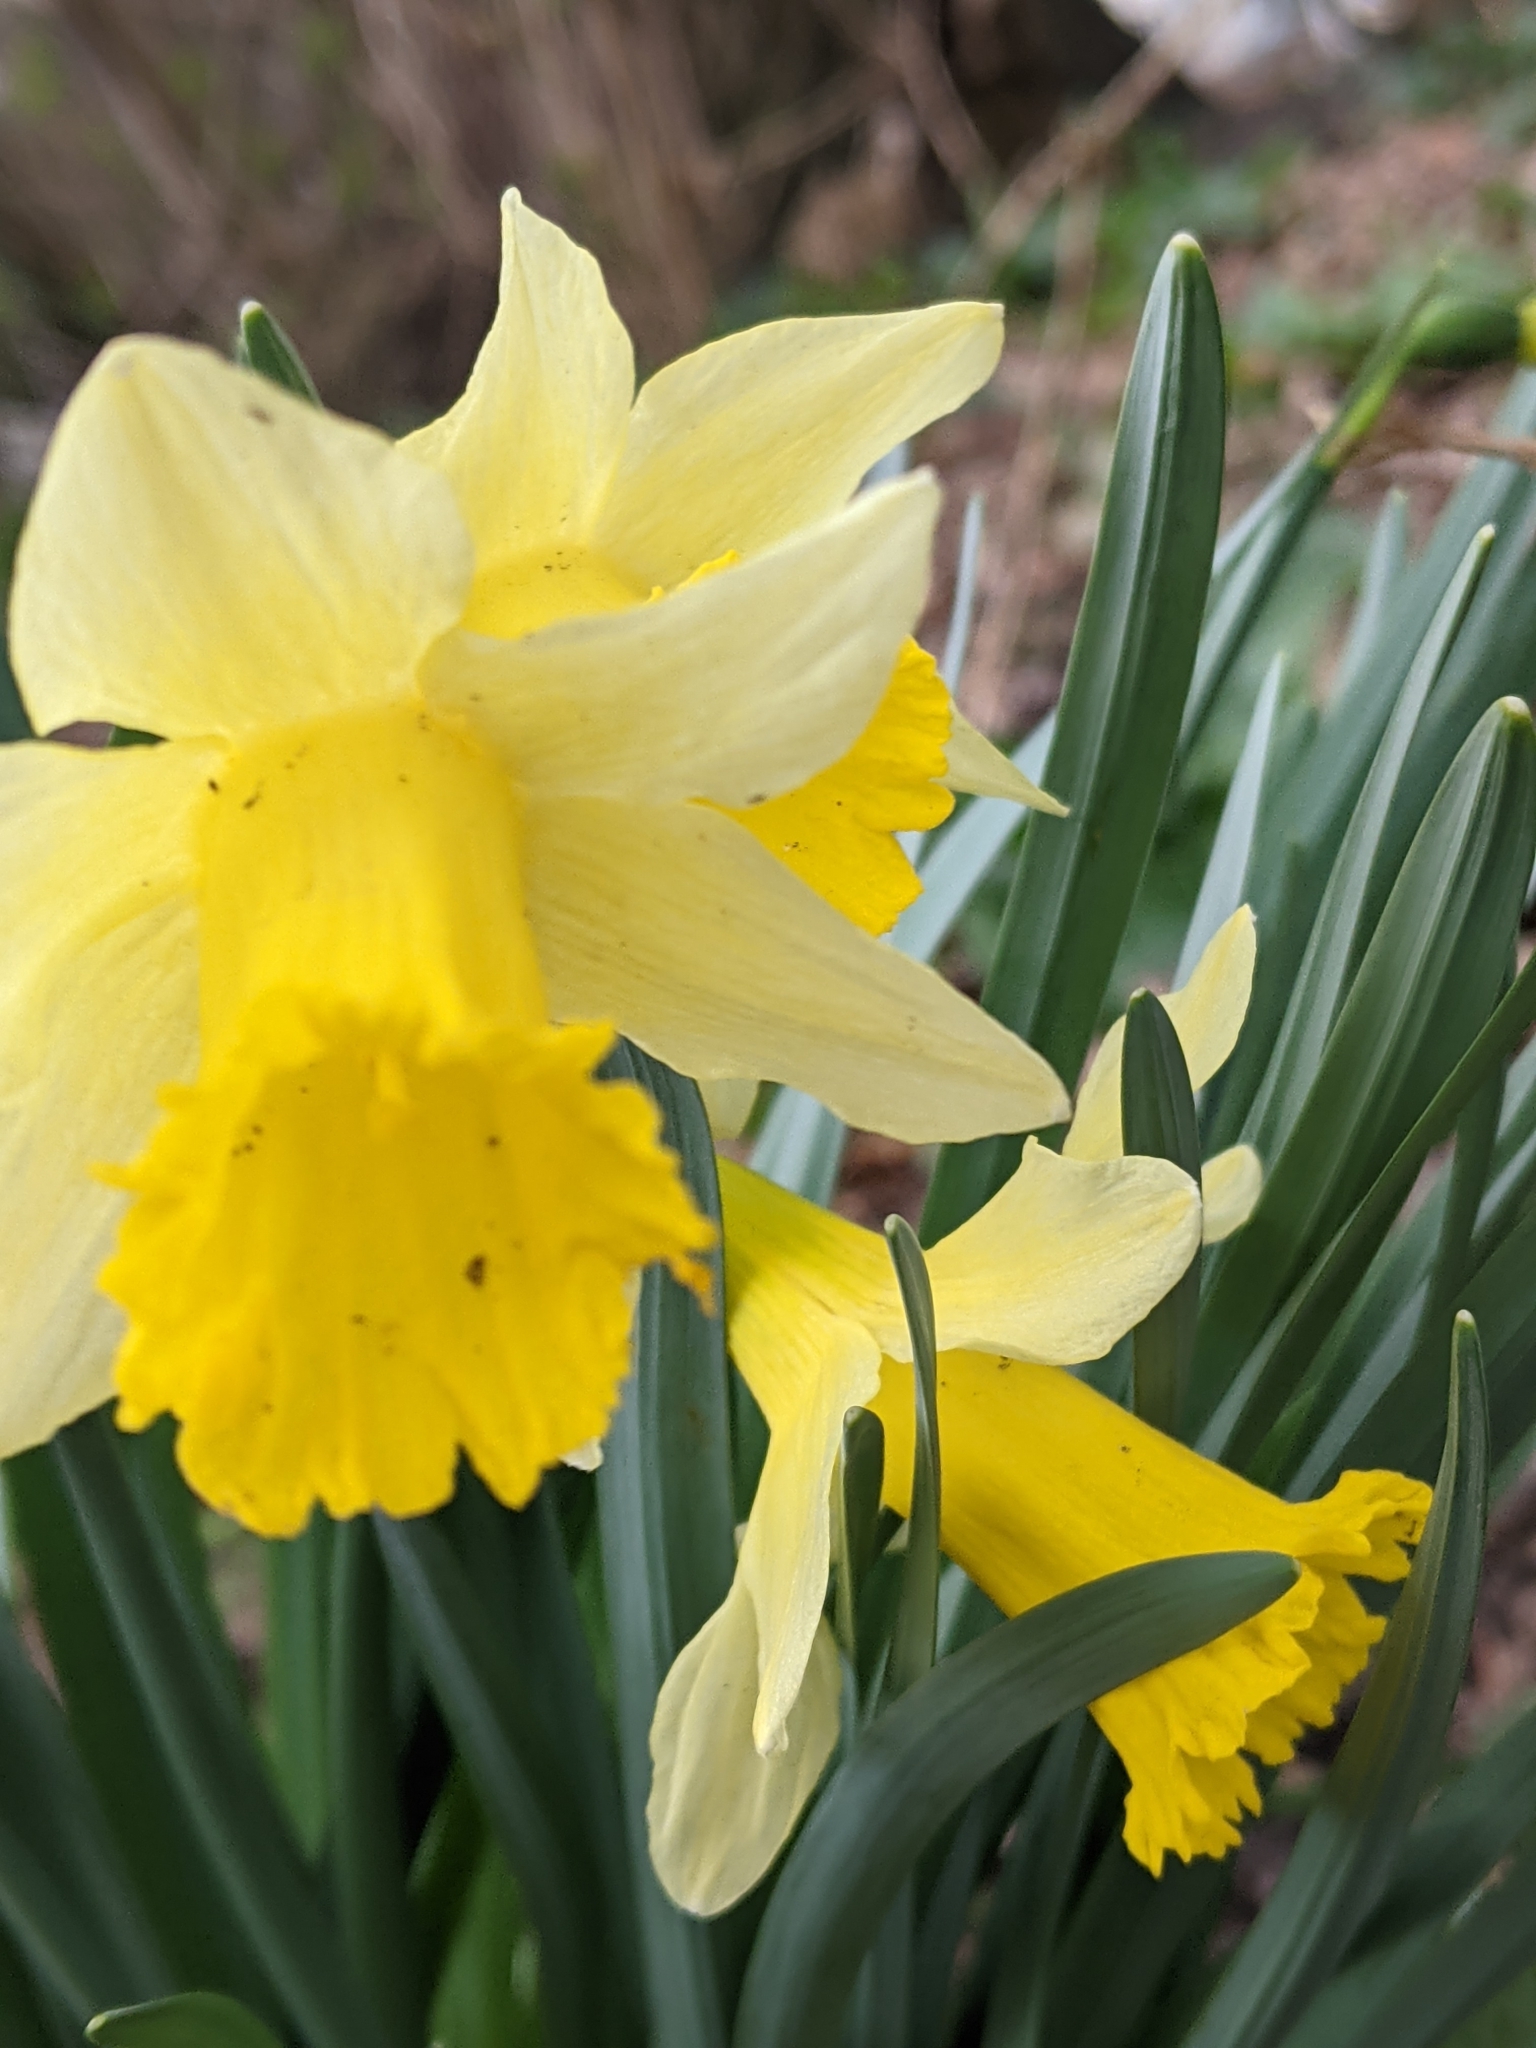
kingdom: Plantae
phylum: Tracheophyta
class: Liliopsida
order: Asparagales
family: Amaryllidaceae
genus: Narcissus
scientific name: Narcissus pseudonarcissus
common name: Daffodil
